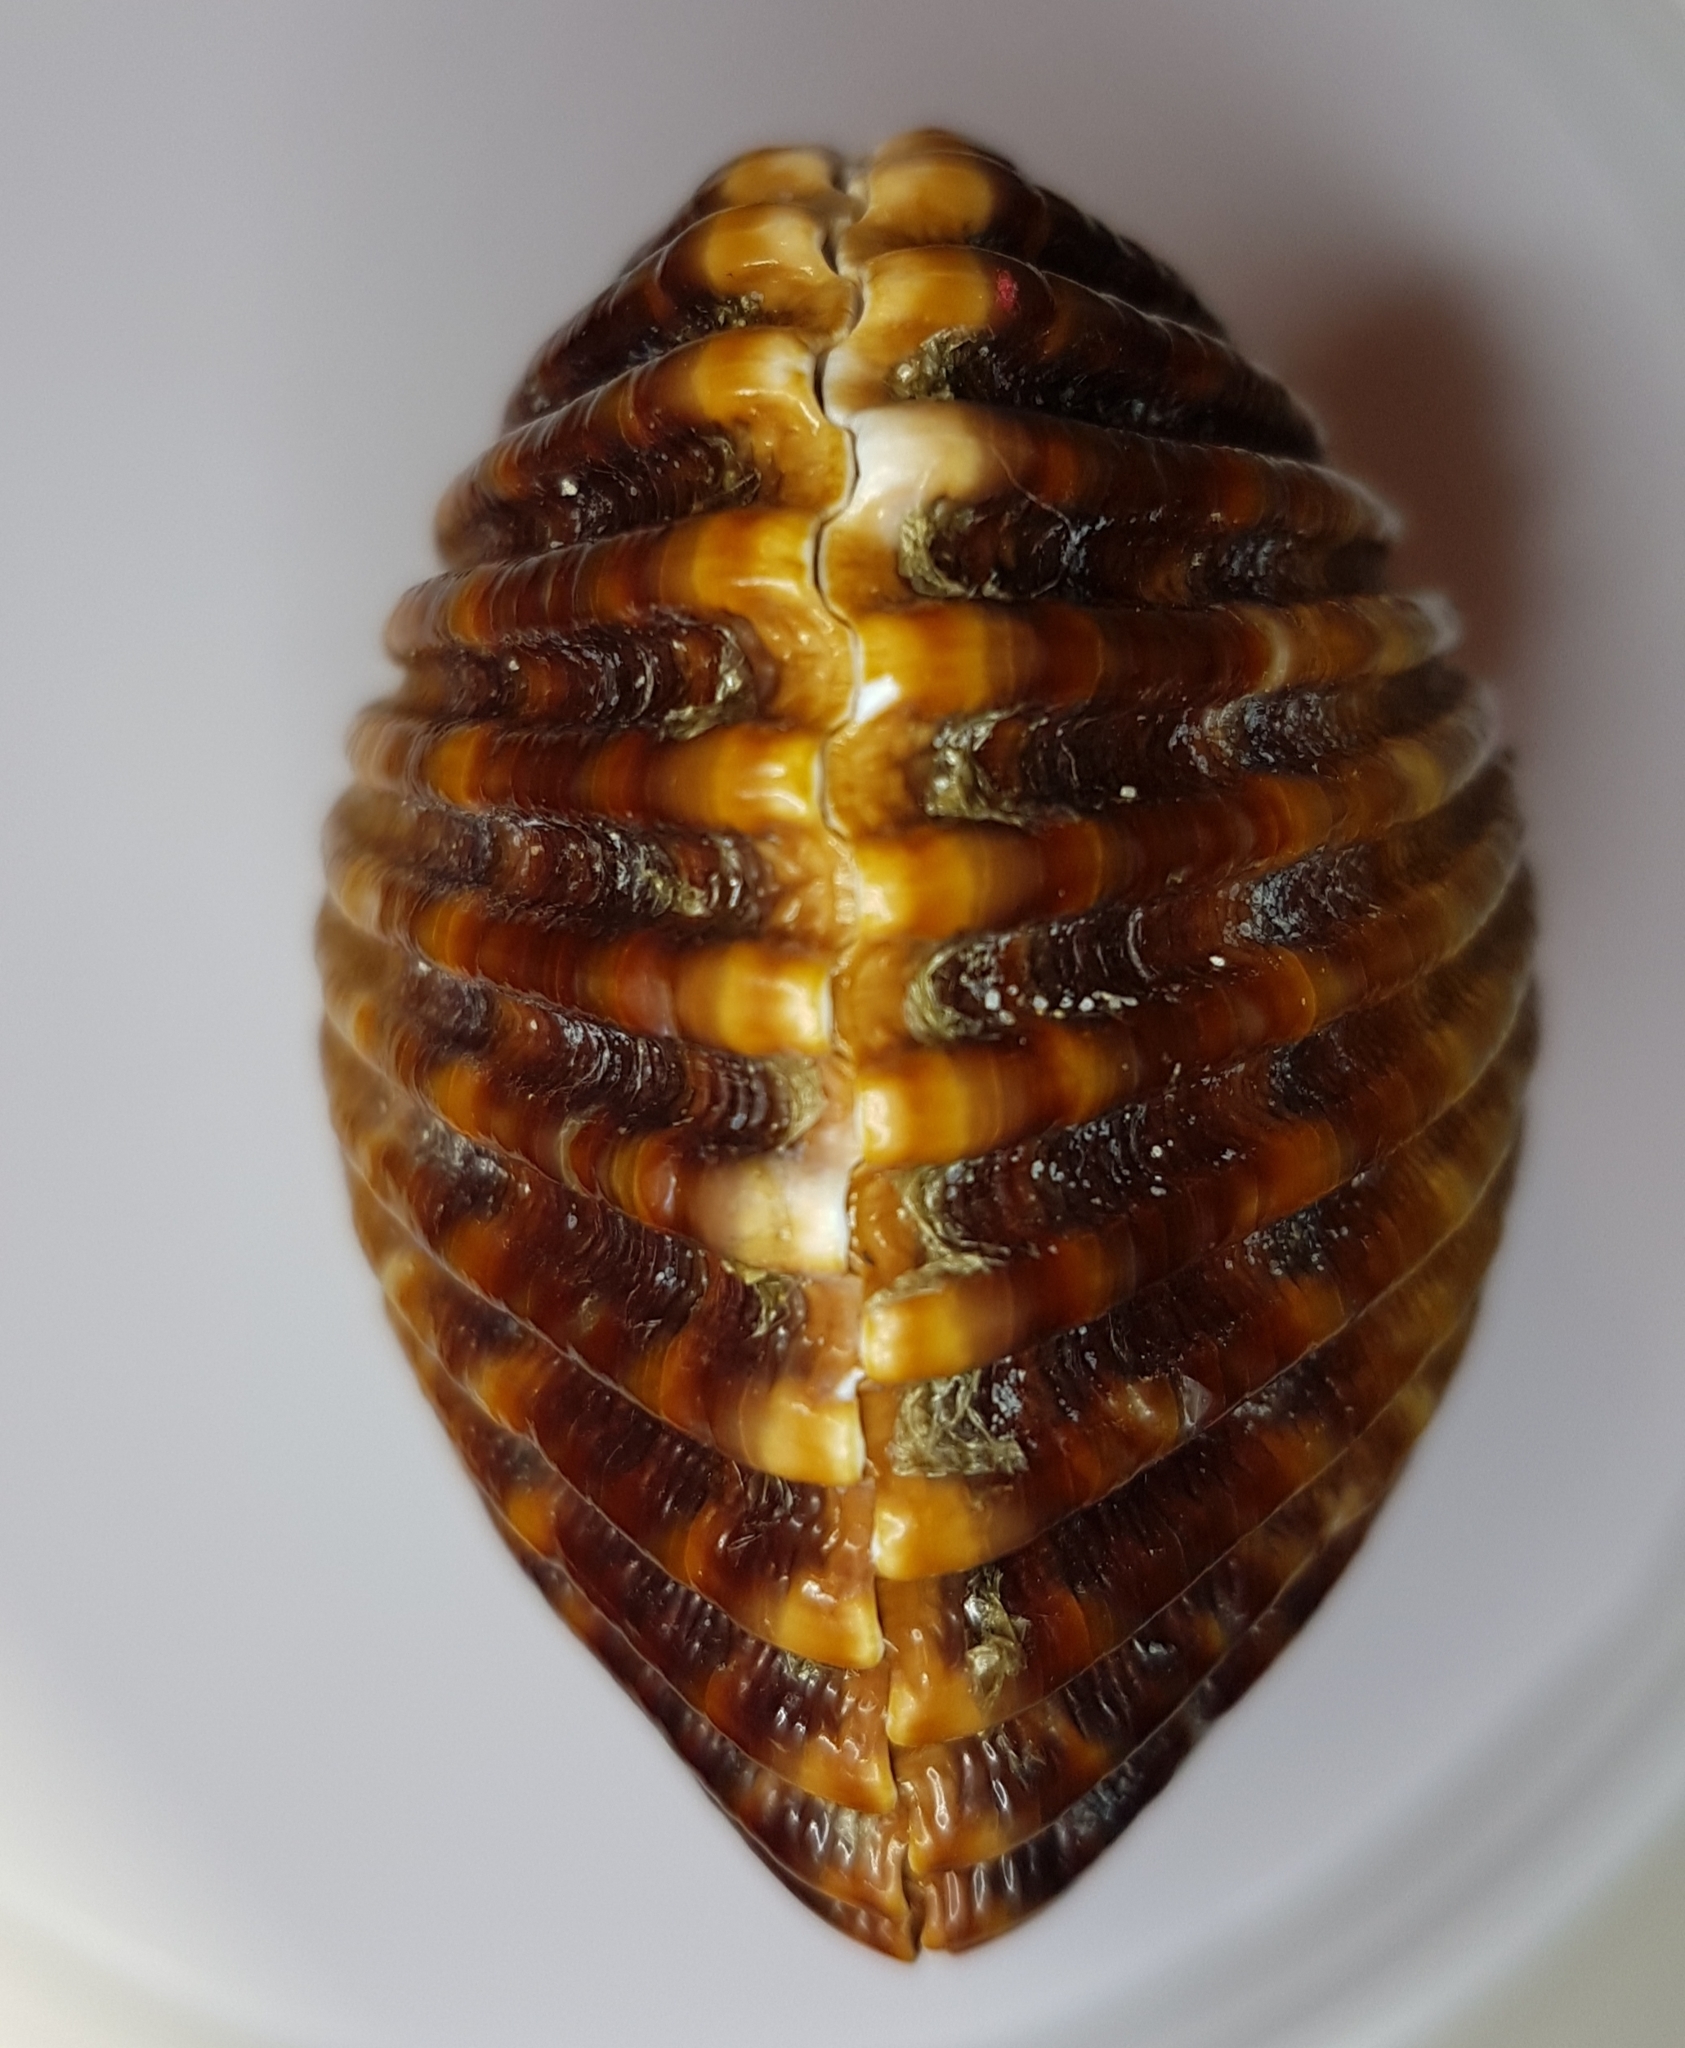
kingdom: Animalia
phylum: Mollusca
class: Bivalvia
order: Cardiida
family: Cardiidae
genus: Acanthocardia
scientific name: Acanthocardia tuberculata
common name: Rough cockle
